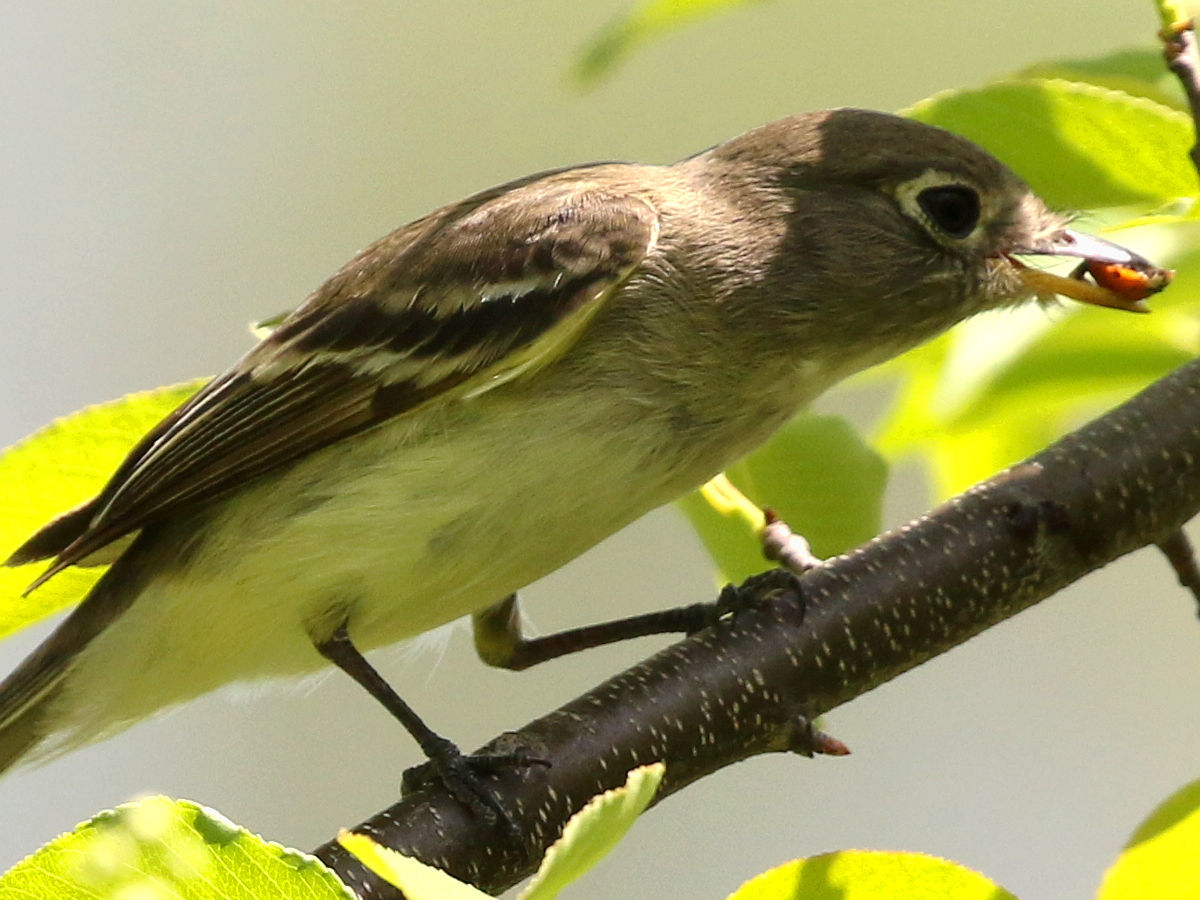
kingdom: Animalia
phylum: Chordata
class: Aves
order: Passeriformes
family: Tyrannidae
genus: Empidonax
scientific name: Empidonax flaviventris
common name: Yellow-bellied flycatcher
